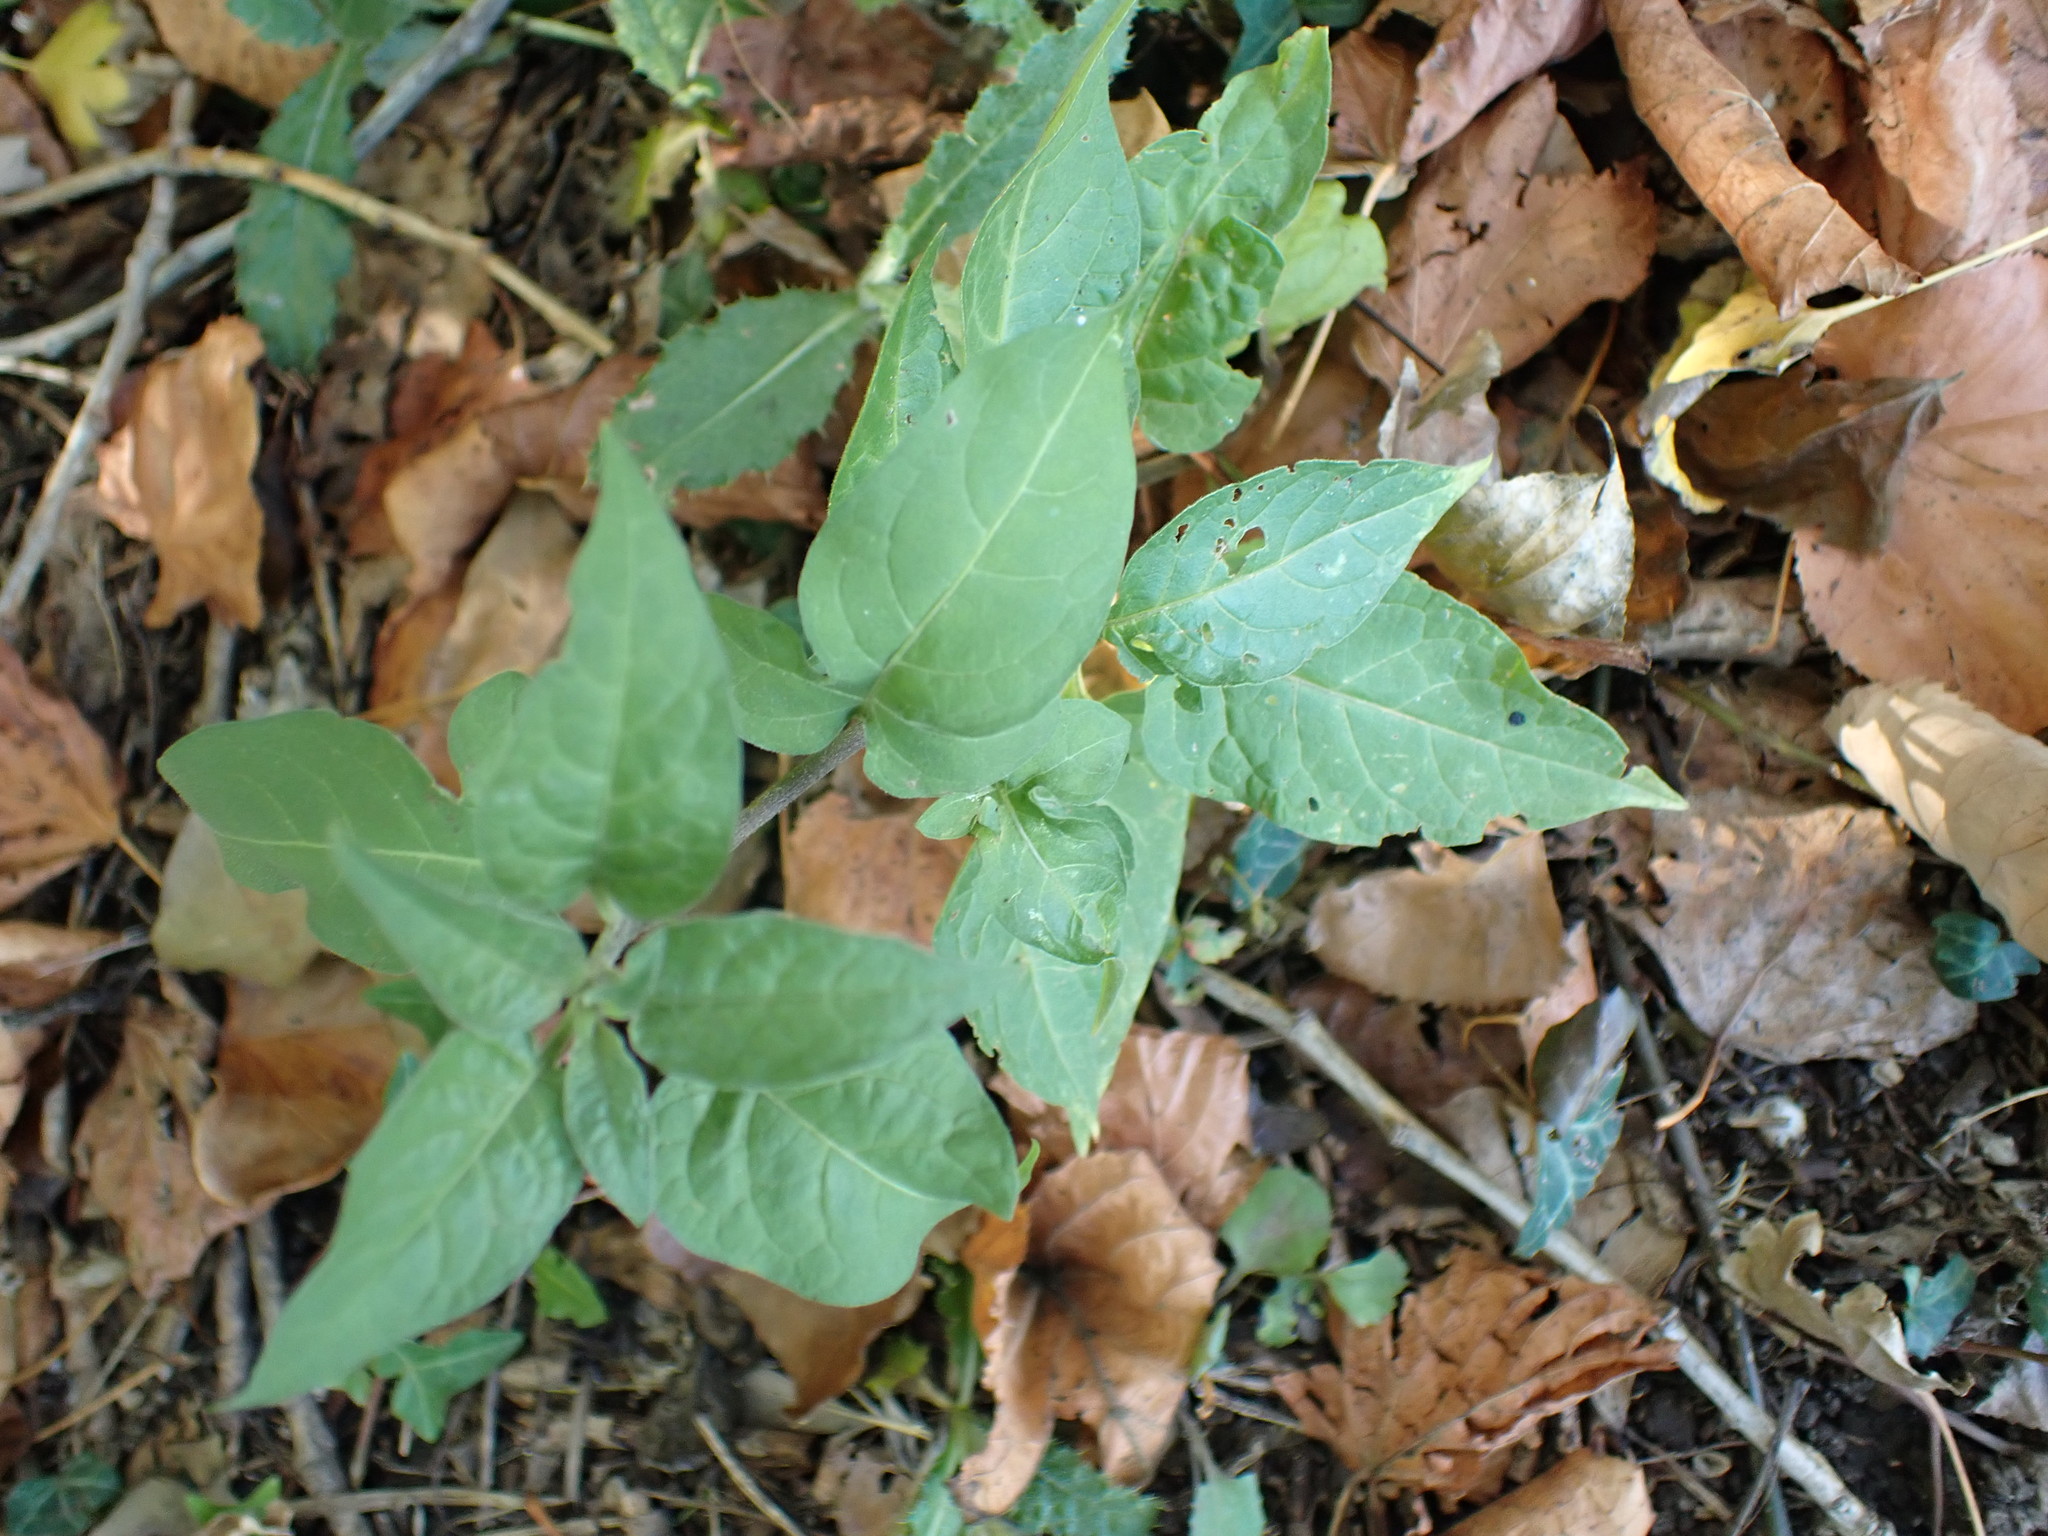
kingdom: Plantae
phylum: Tracheophyta
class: Magnoliopsida
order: Solanales
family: Solanaceae
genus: Solanum
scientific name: Solanum dulcamara
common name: Climbing nightshade
